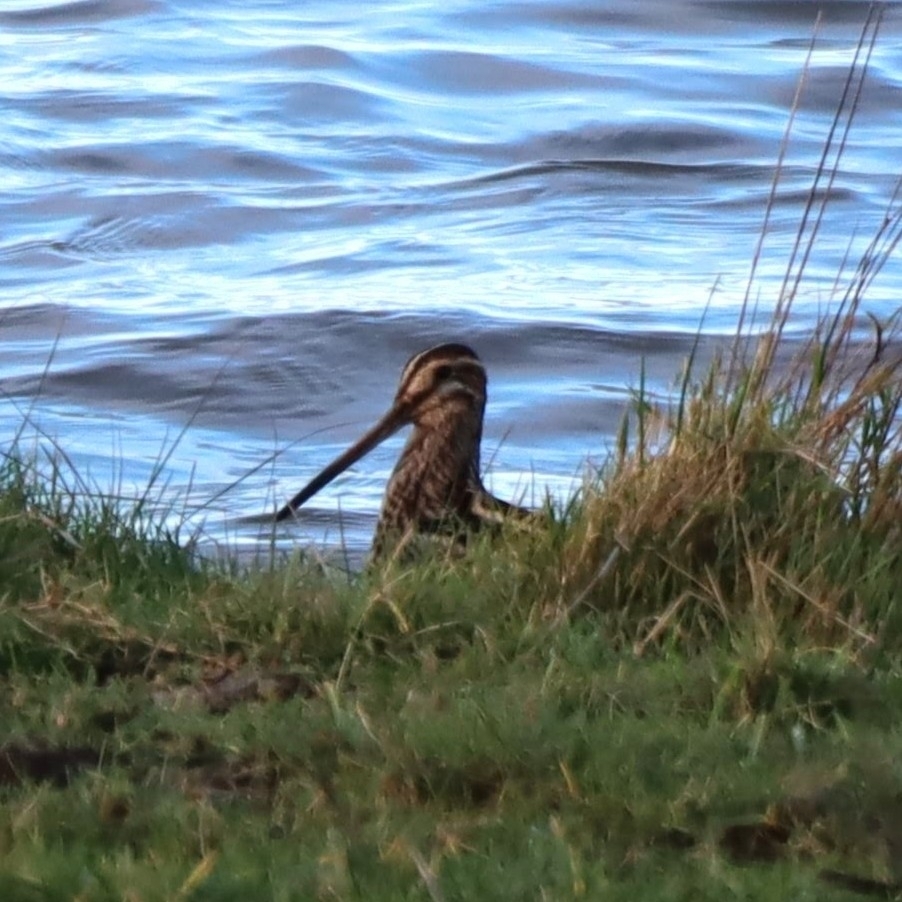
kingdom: Animalia
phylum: Chordata
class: Aves
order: Charadriiformes
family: Scolopacidae
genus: Gallinago
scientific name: Gallinago gallinago
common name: Common snipe
